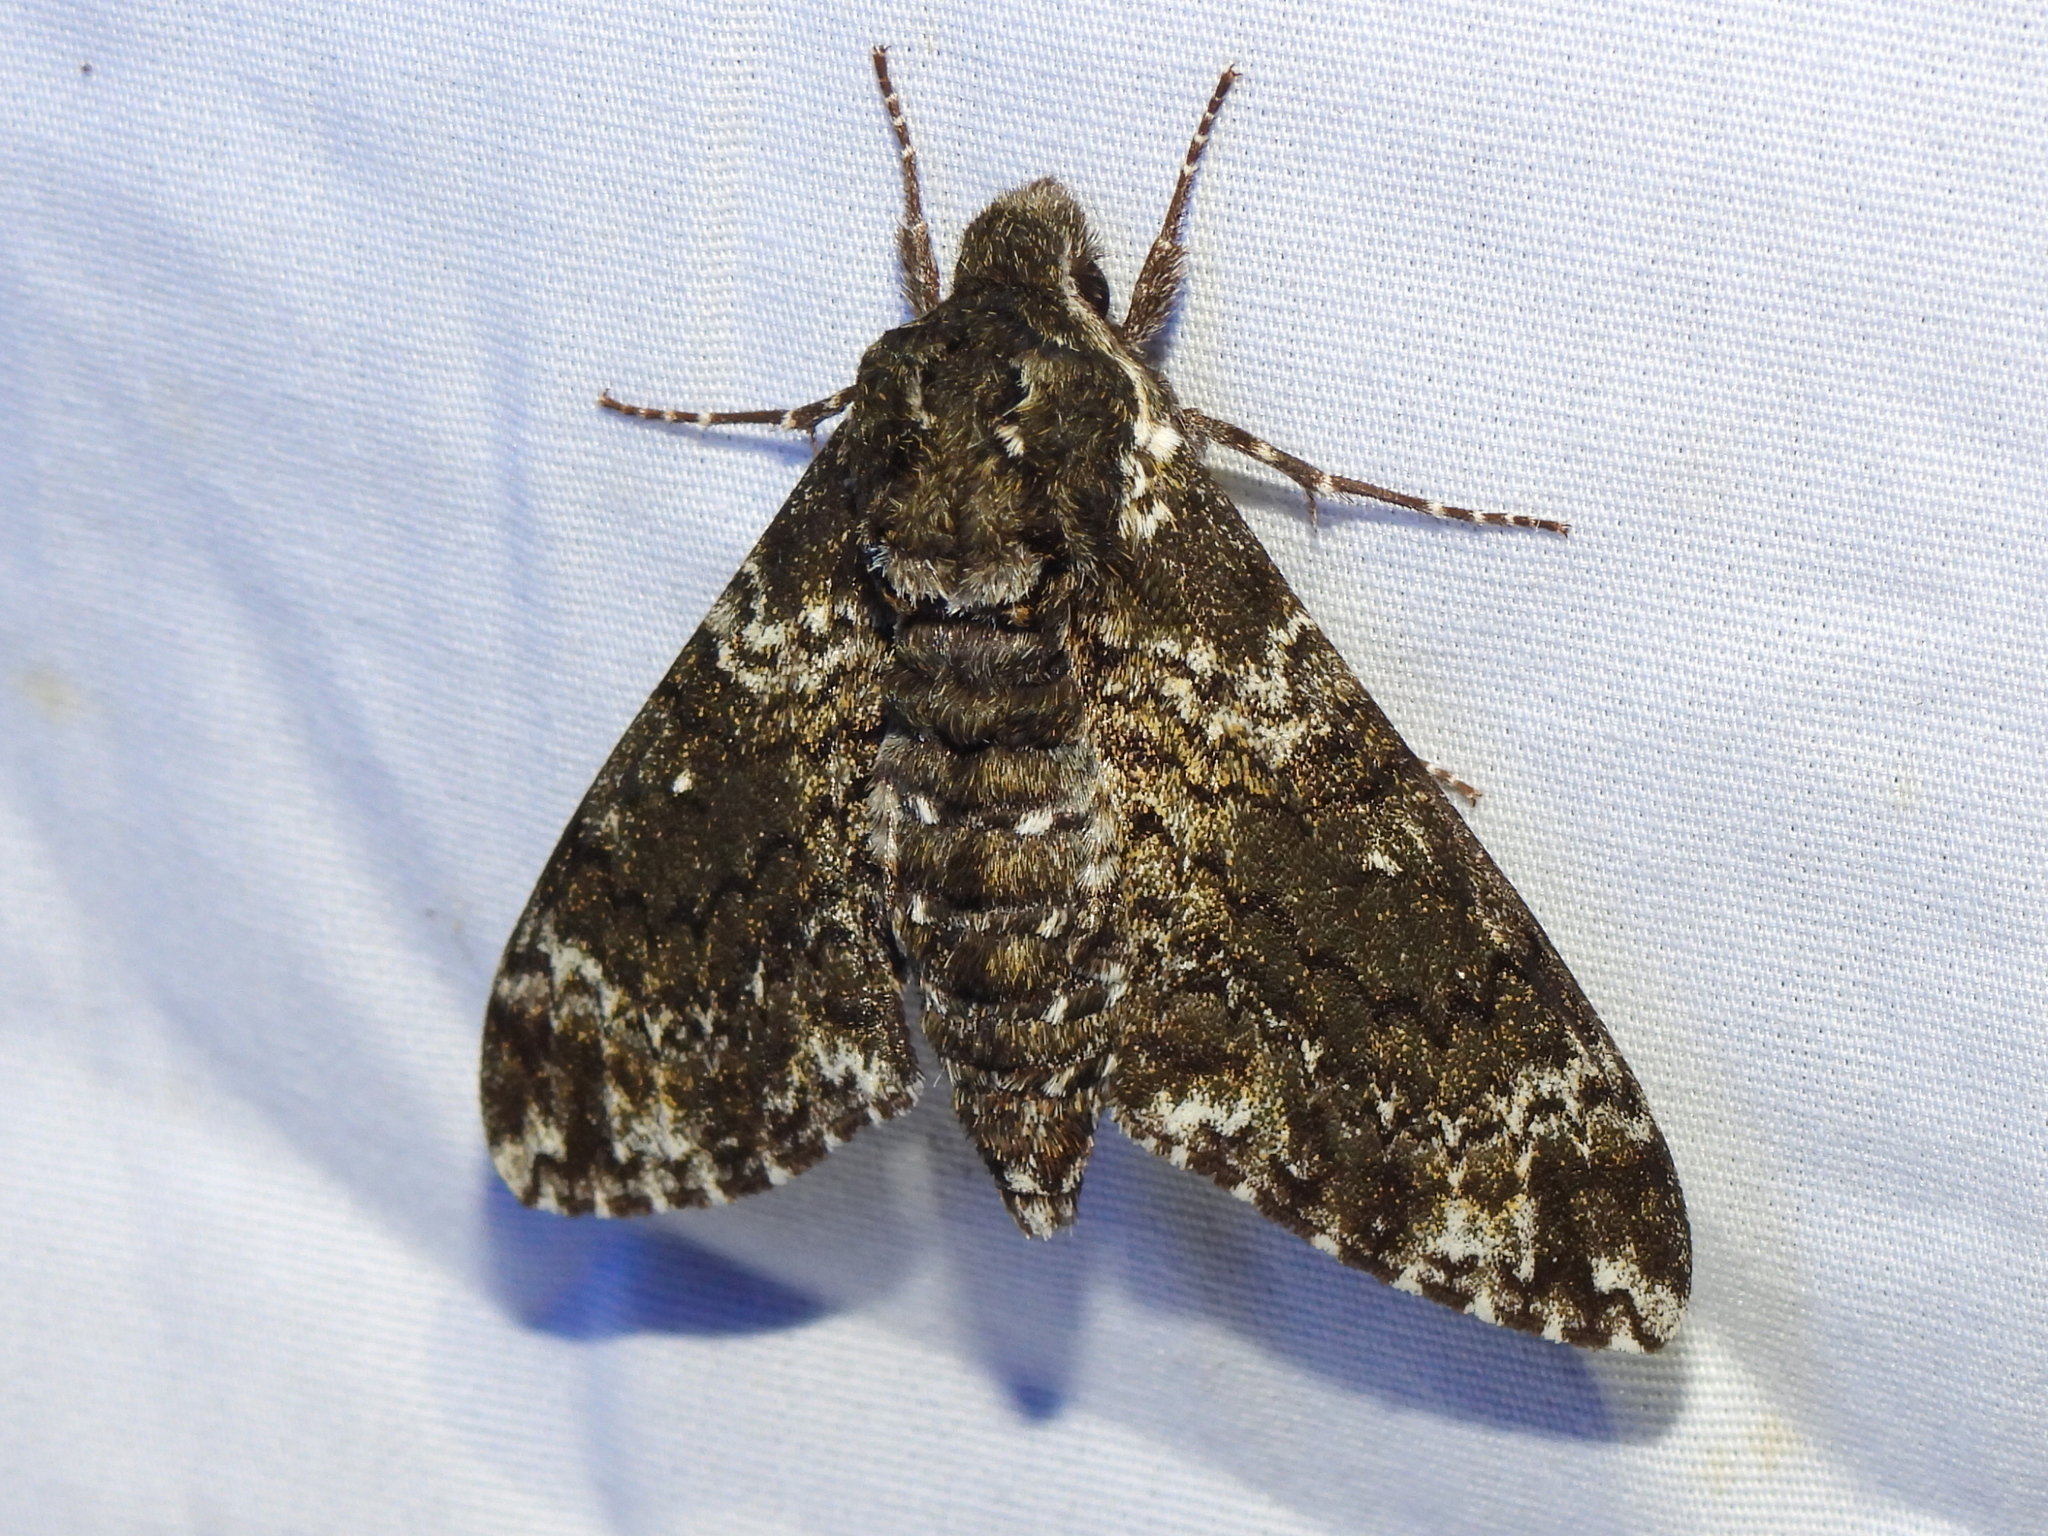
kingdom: Animalia
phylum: Arthropoda
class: Insecta
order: Lepidoptera
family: Sphingidae
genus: Dolba
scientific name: Dolba hyloeus
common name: Pawpaw sphinx
